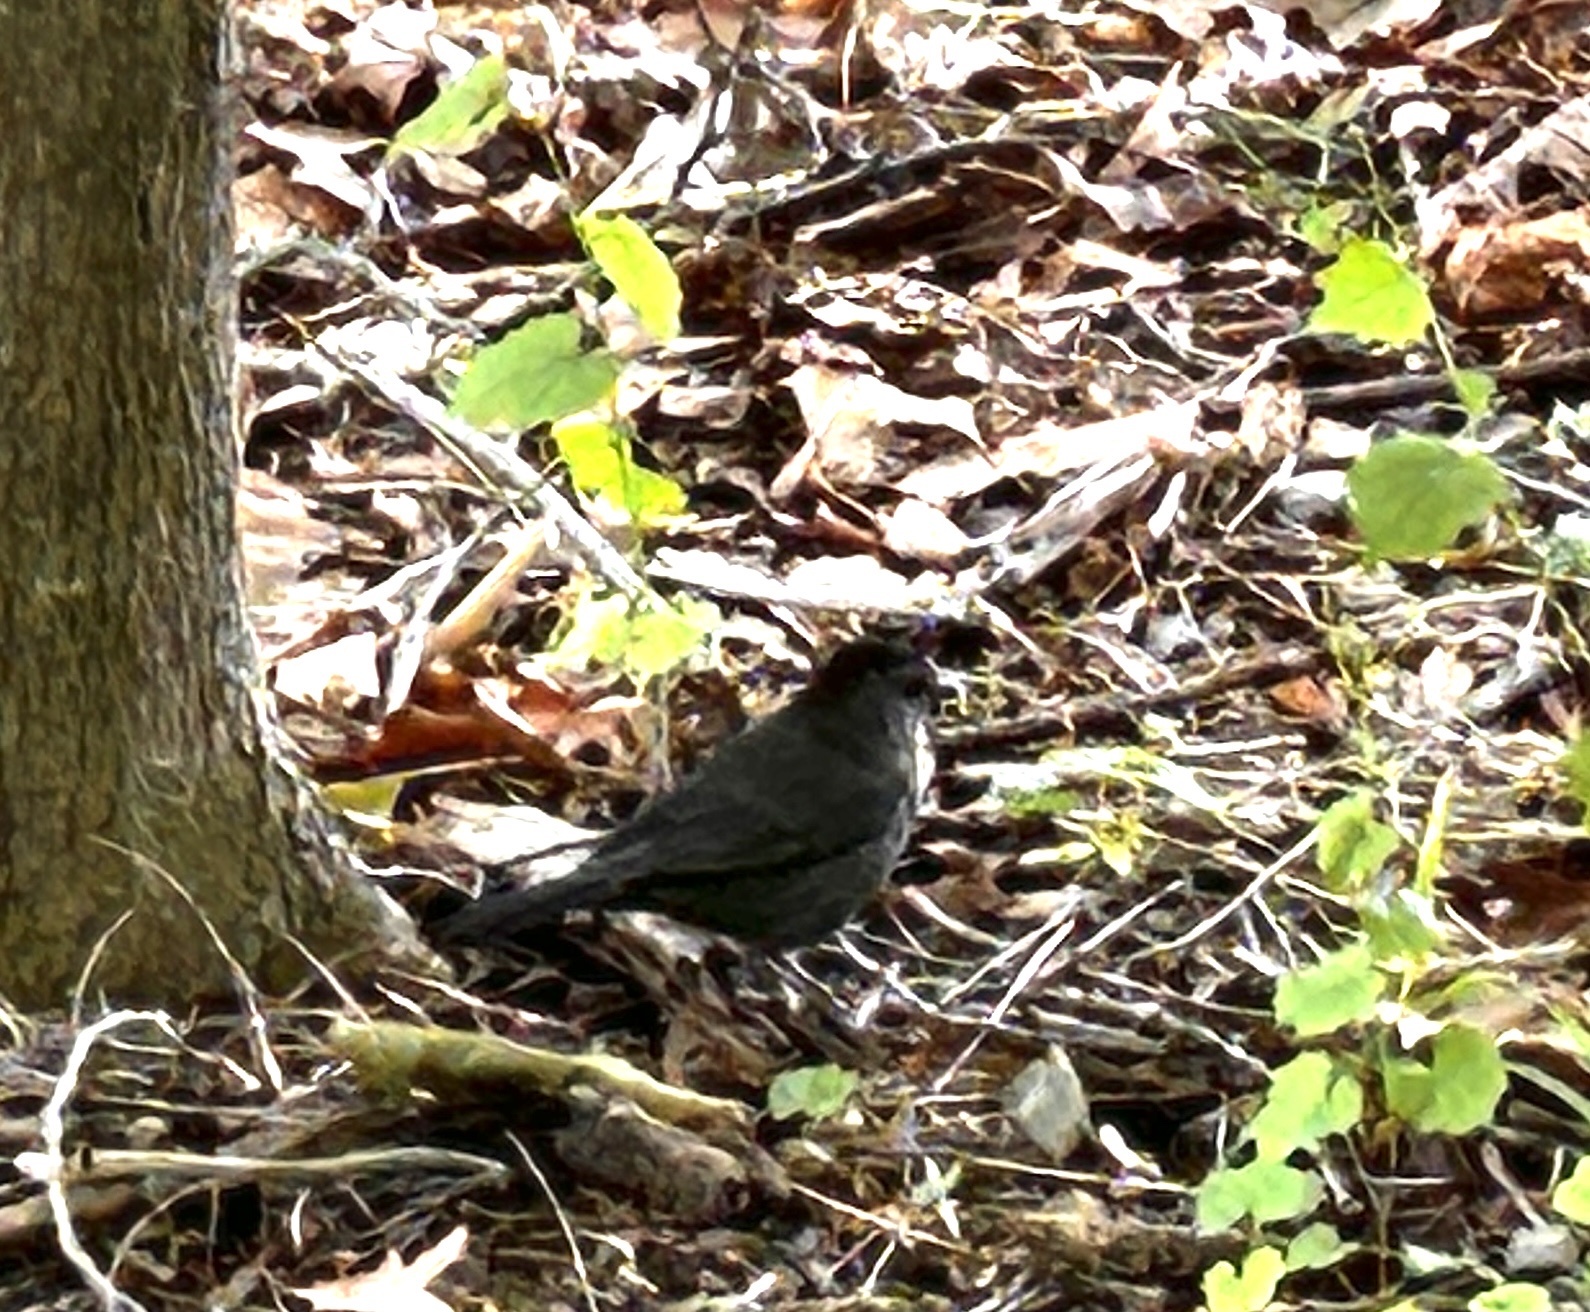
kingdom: Animalia
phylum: Chordata
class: Aves
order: Passeriformes
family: Mimidae
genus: Dumetella
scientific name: Dumetella carolinensis
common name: Gray catbird
